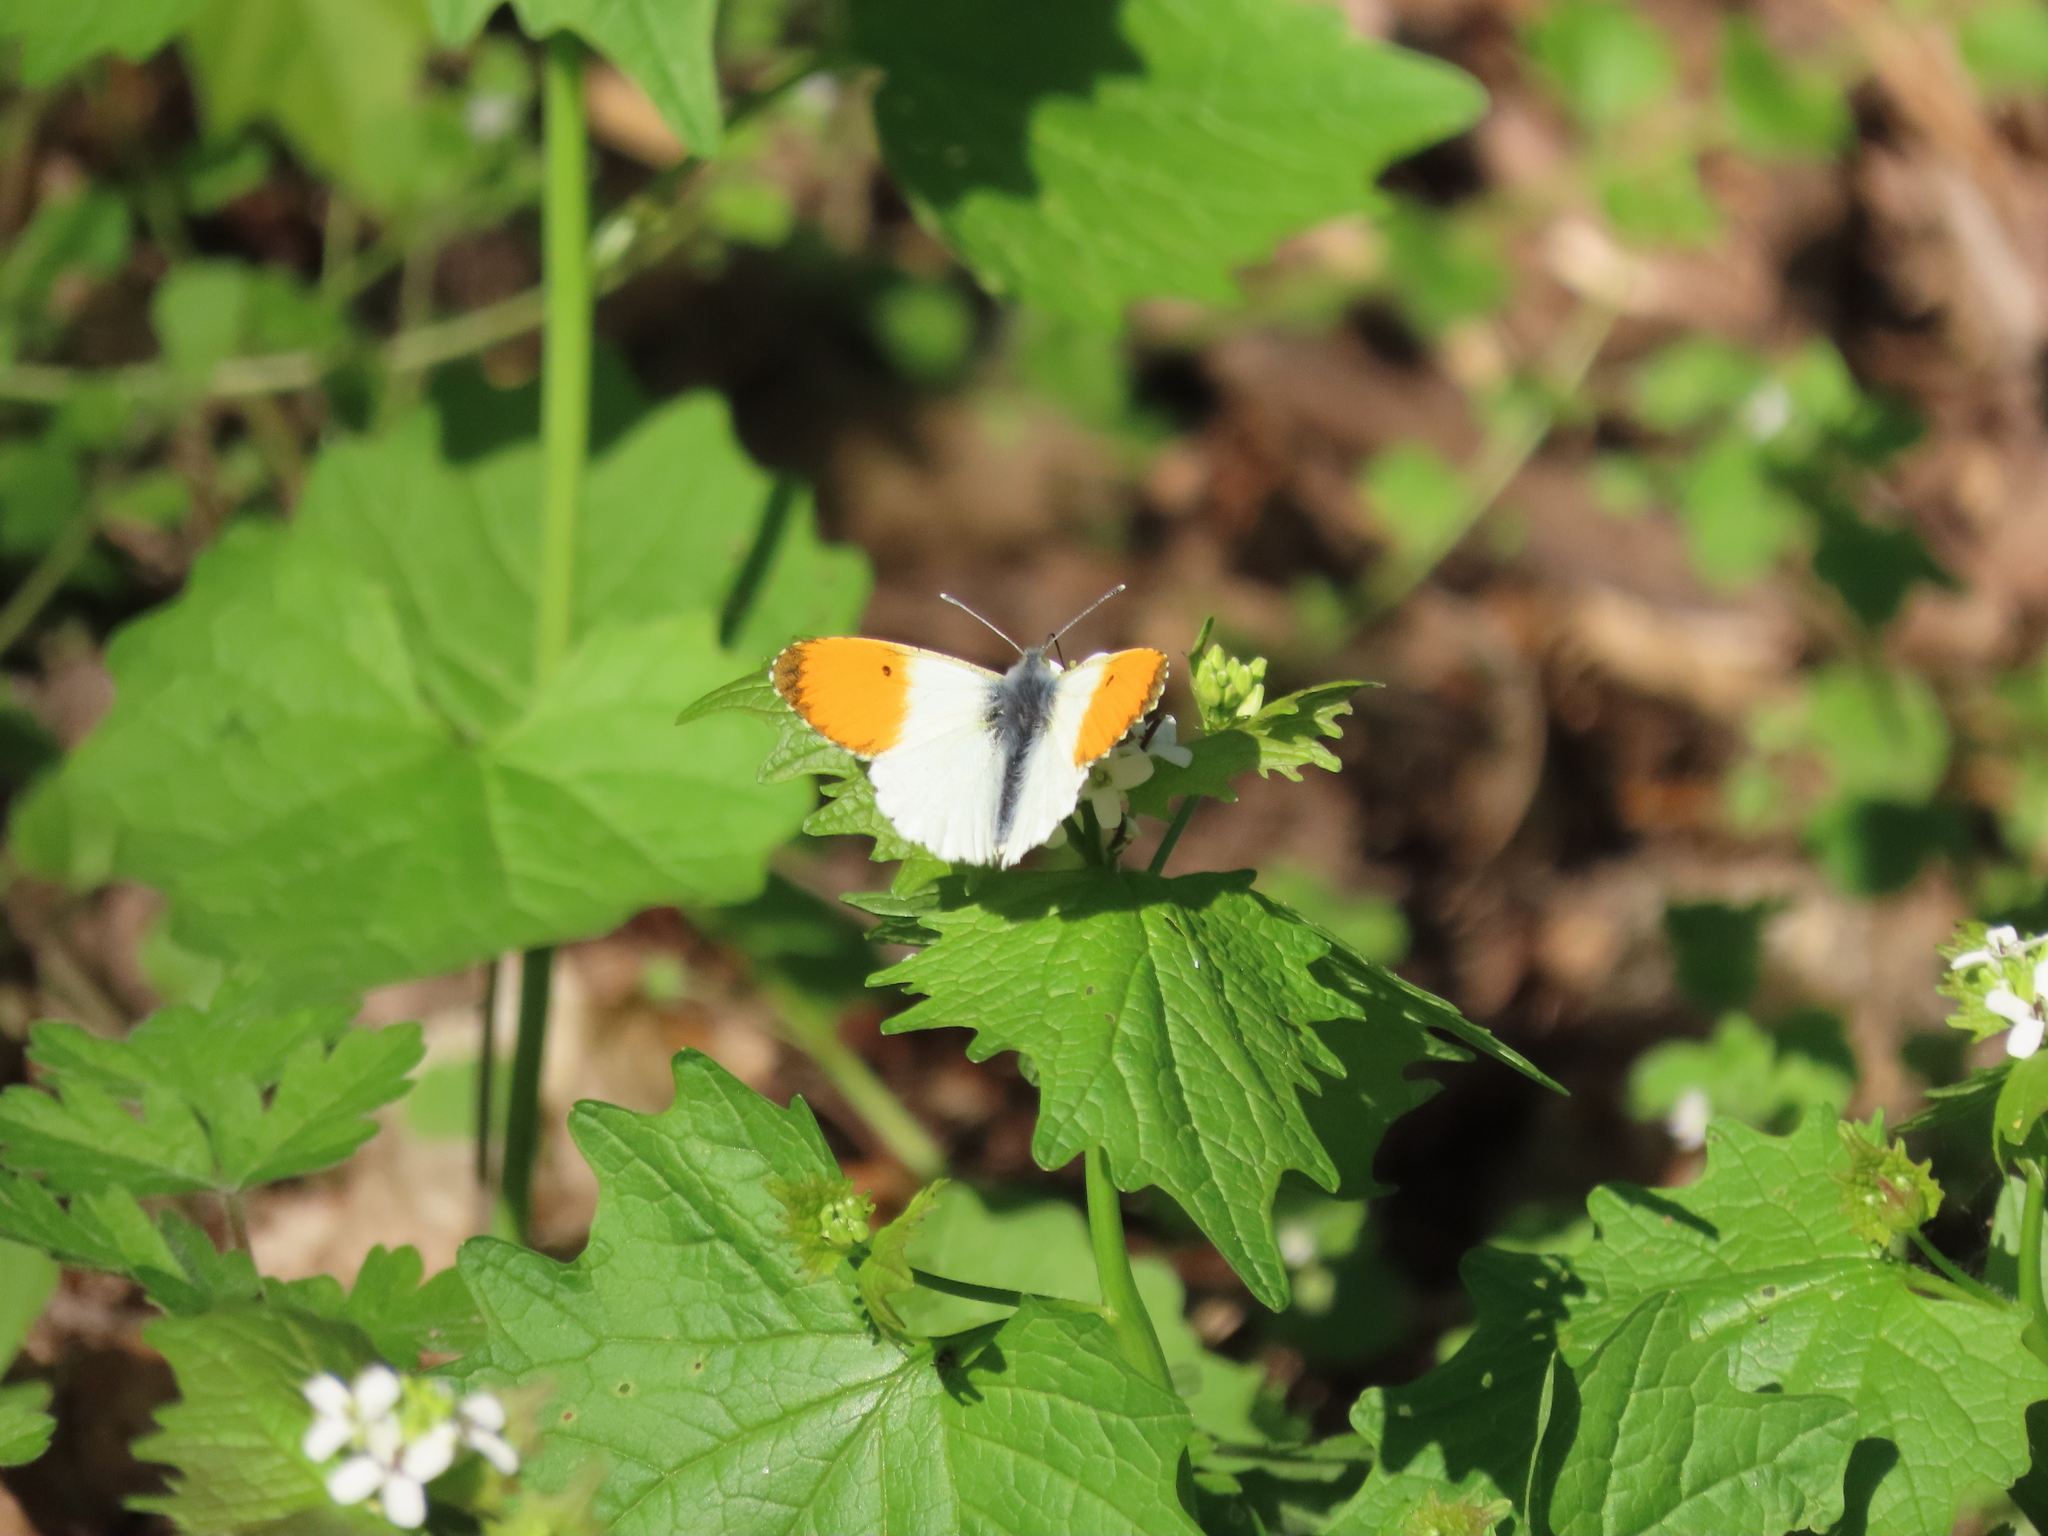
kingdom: Animalia
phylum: Arthropoda
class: Insecta
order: Lepidoptera
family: Pieridae
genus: Anthocharis
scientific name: Anthocharis cardamines
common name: Orange-tip
